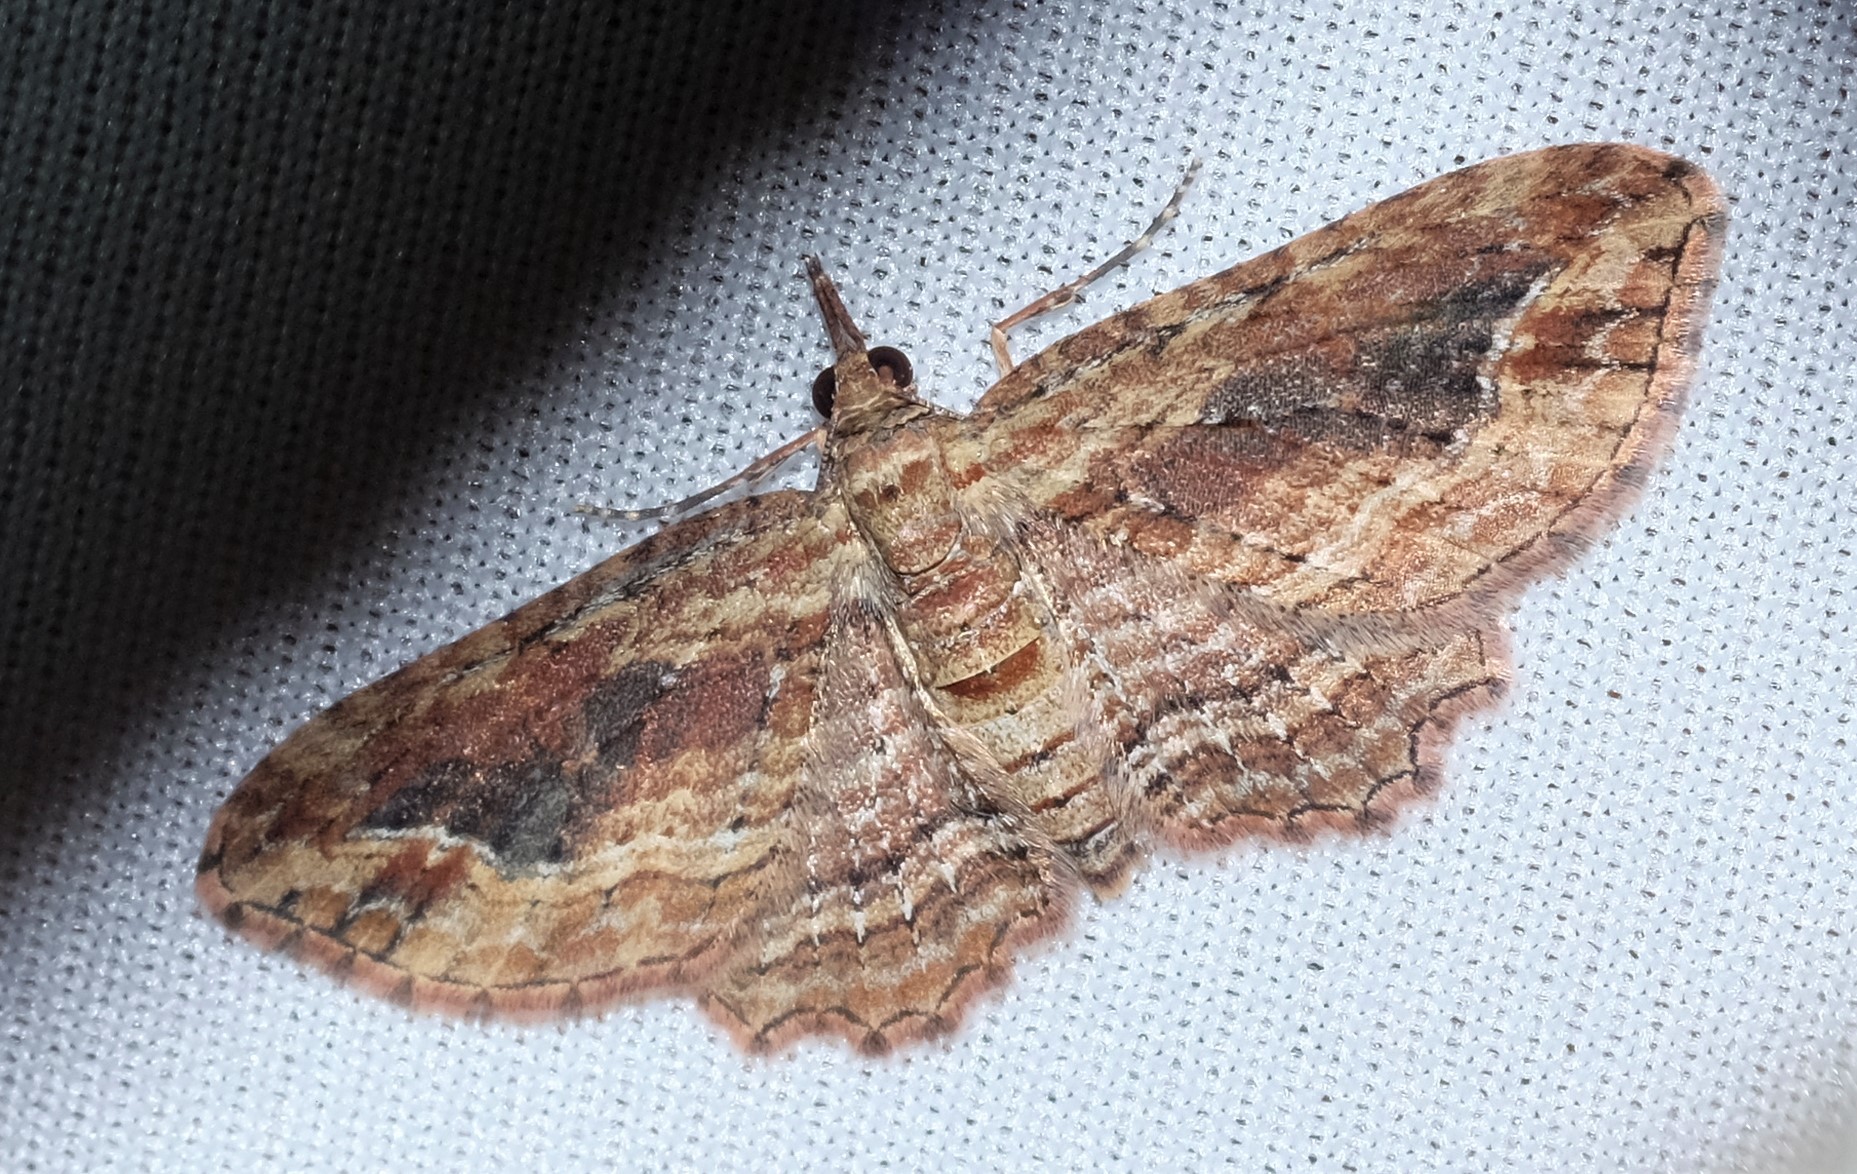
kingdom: Animalia
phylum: Arthropoda
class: Insecta
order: Lepidoptera
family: Geometridae
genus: Chloroclystis
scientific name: Chloroclystis filata
